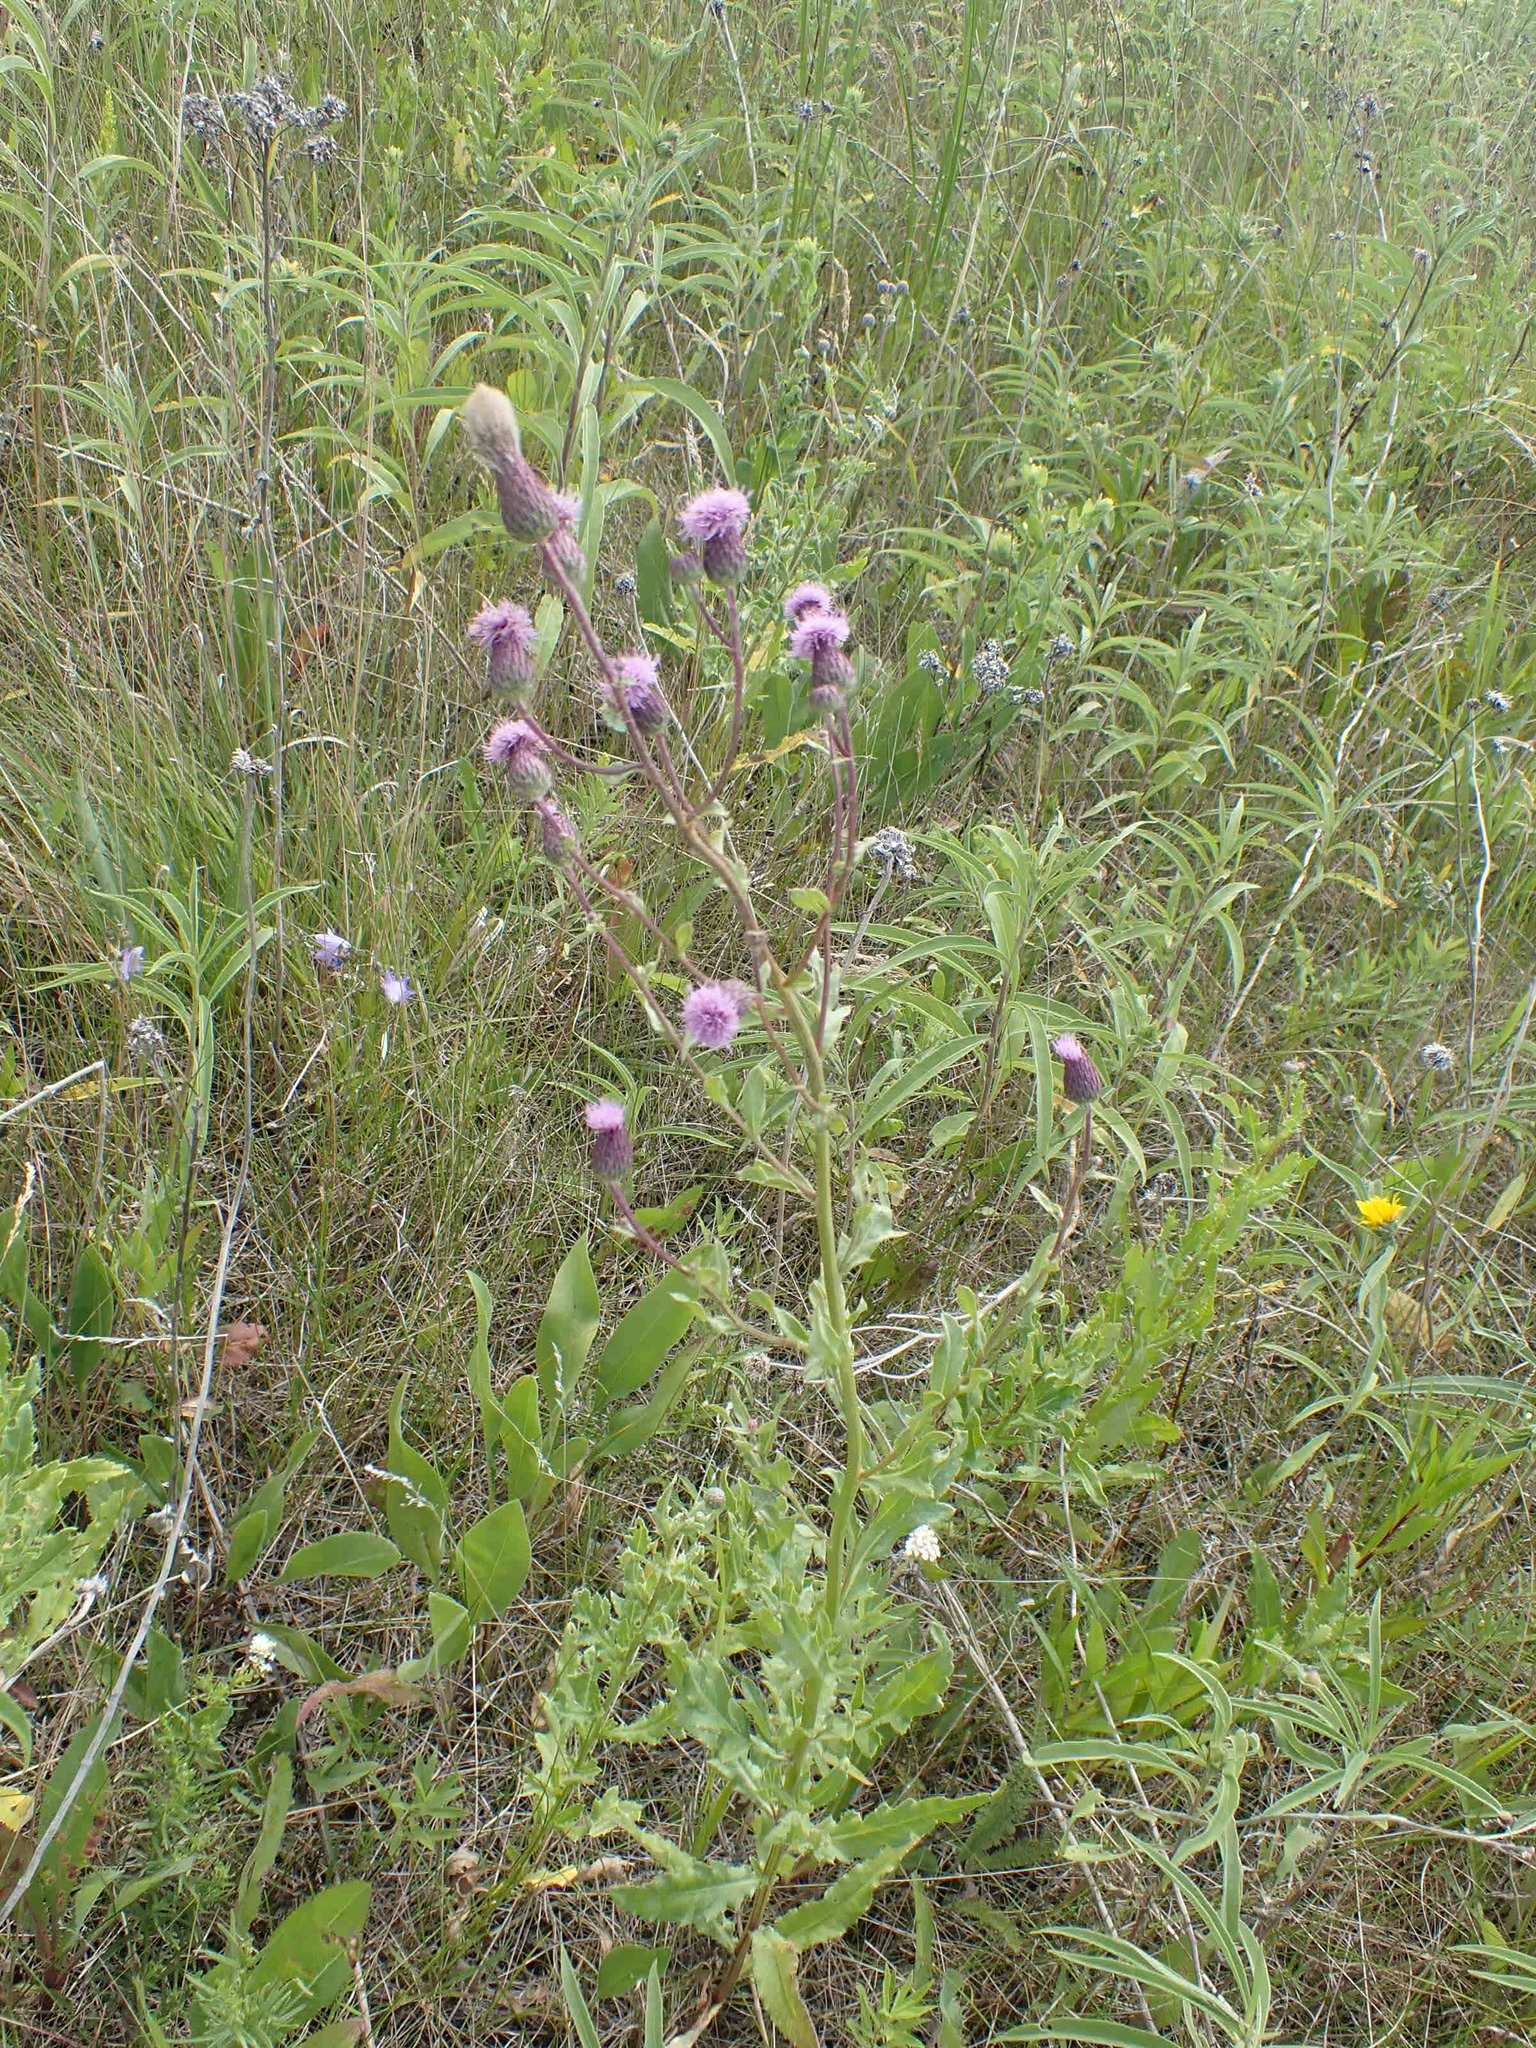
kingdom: Plantae
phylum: Tracheophyta
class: Magnoliopsida
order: Asterales
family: Asteraceae
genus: Cirsium
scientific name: Cirsium arvense
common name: Creeping thistle
